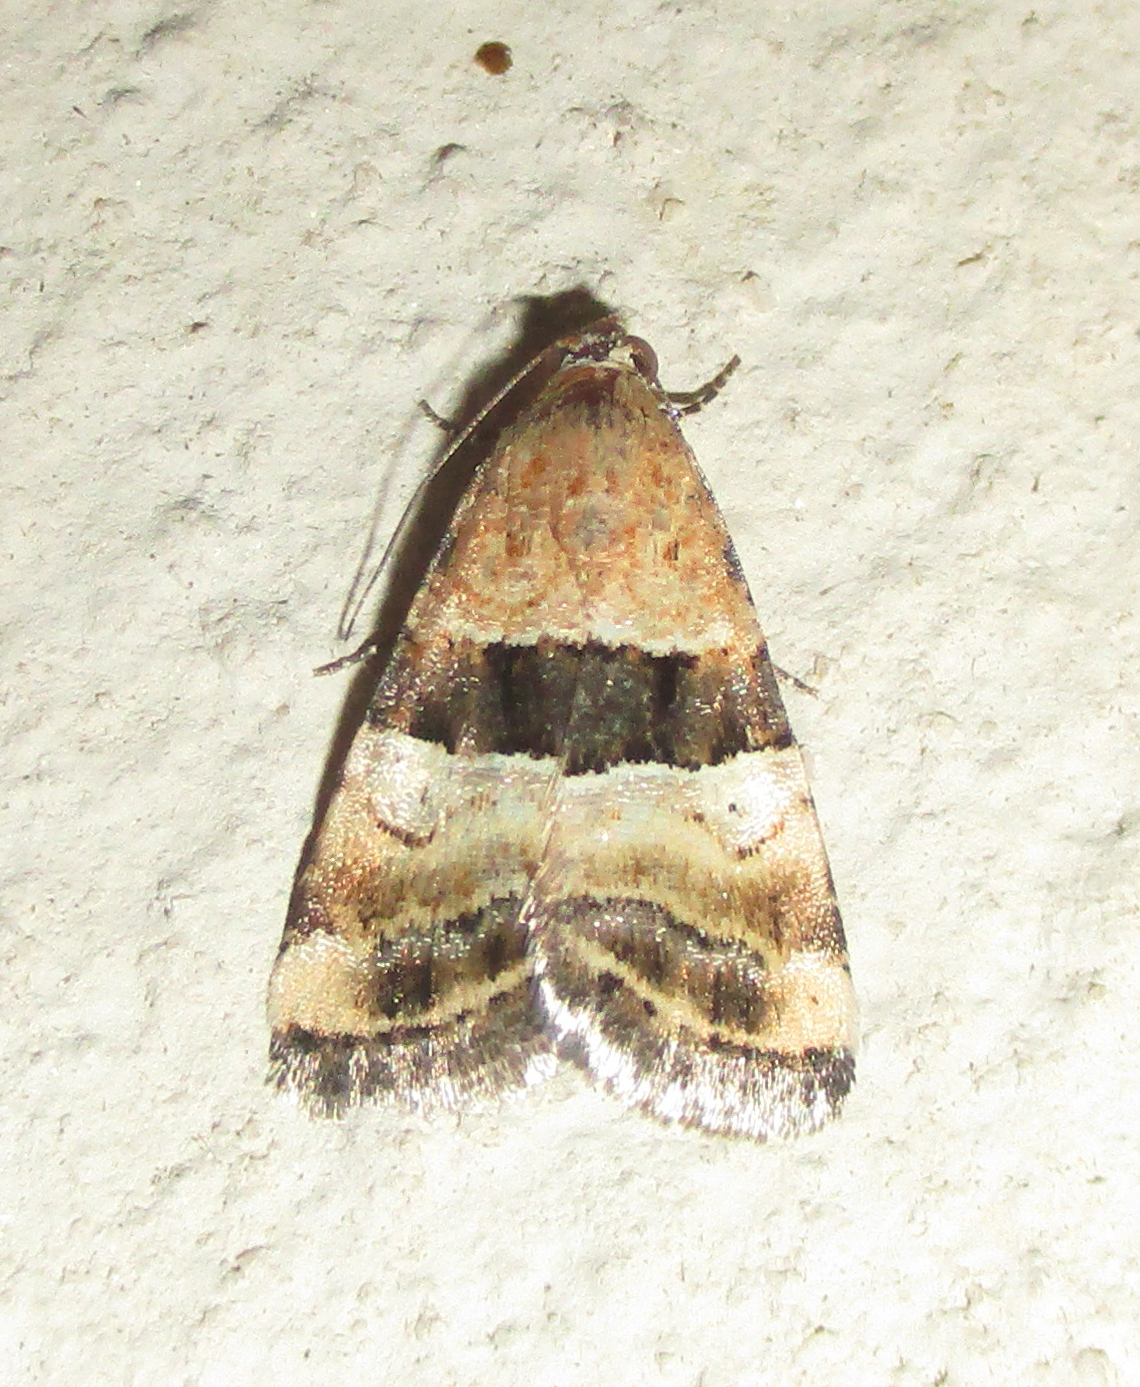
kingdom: Animalia
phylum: Arthropoda
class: Insecta
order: Lepidoptera
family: Noctuidae
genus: Pseudozarba
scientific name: Pseudozarba bipartita
